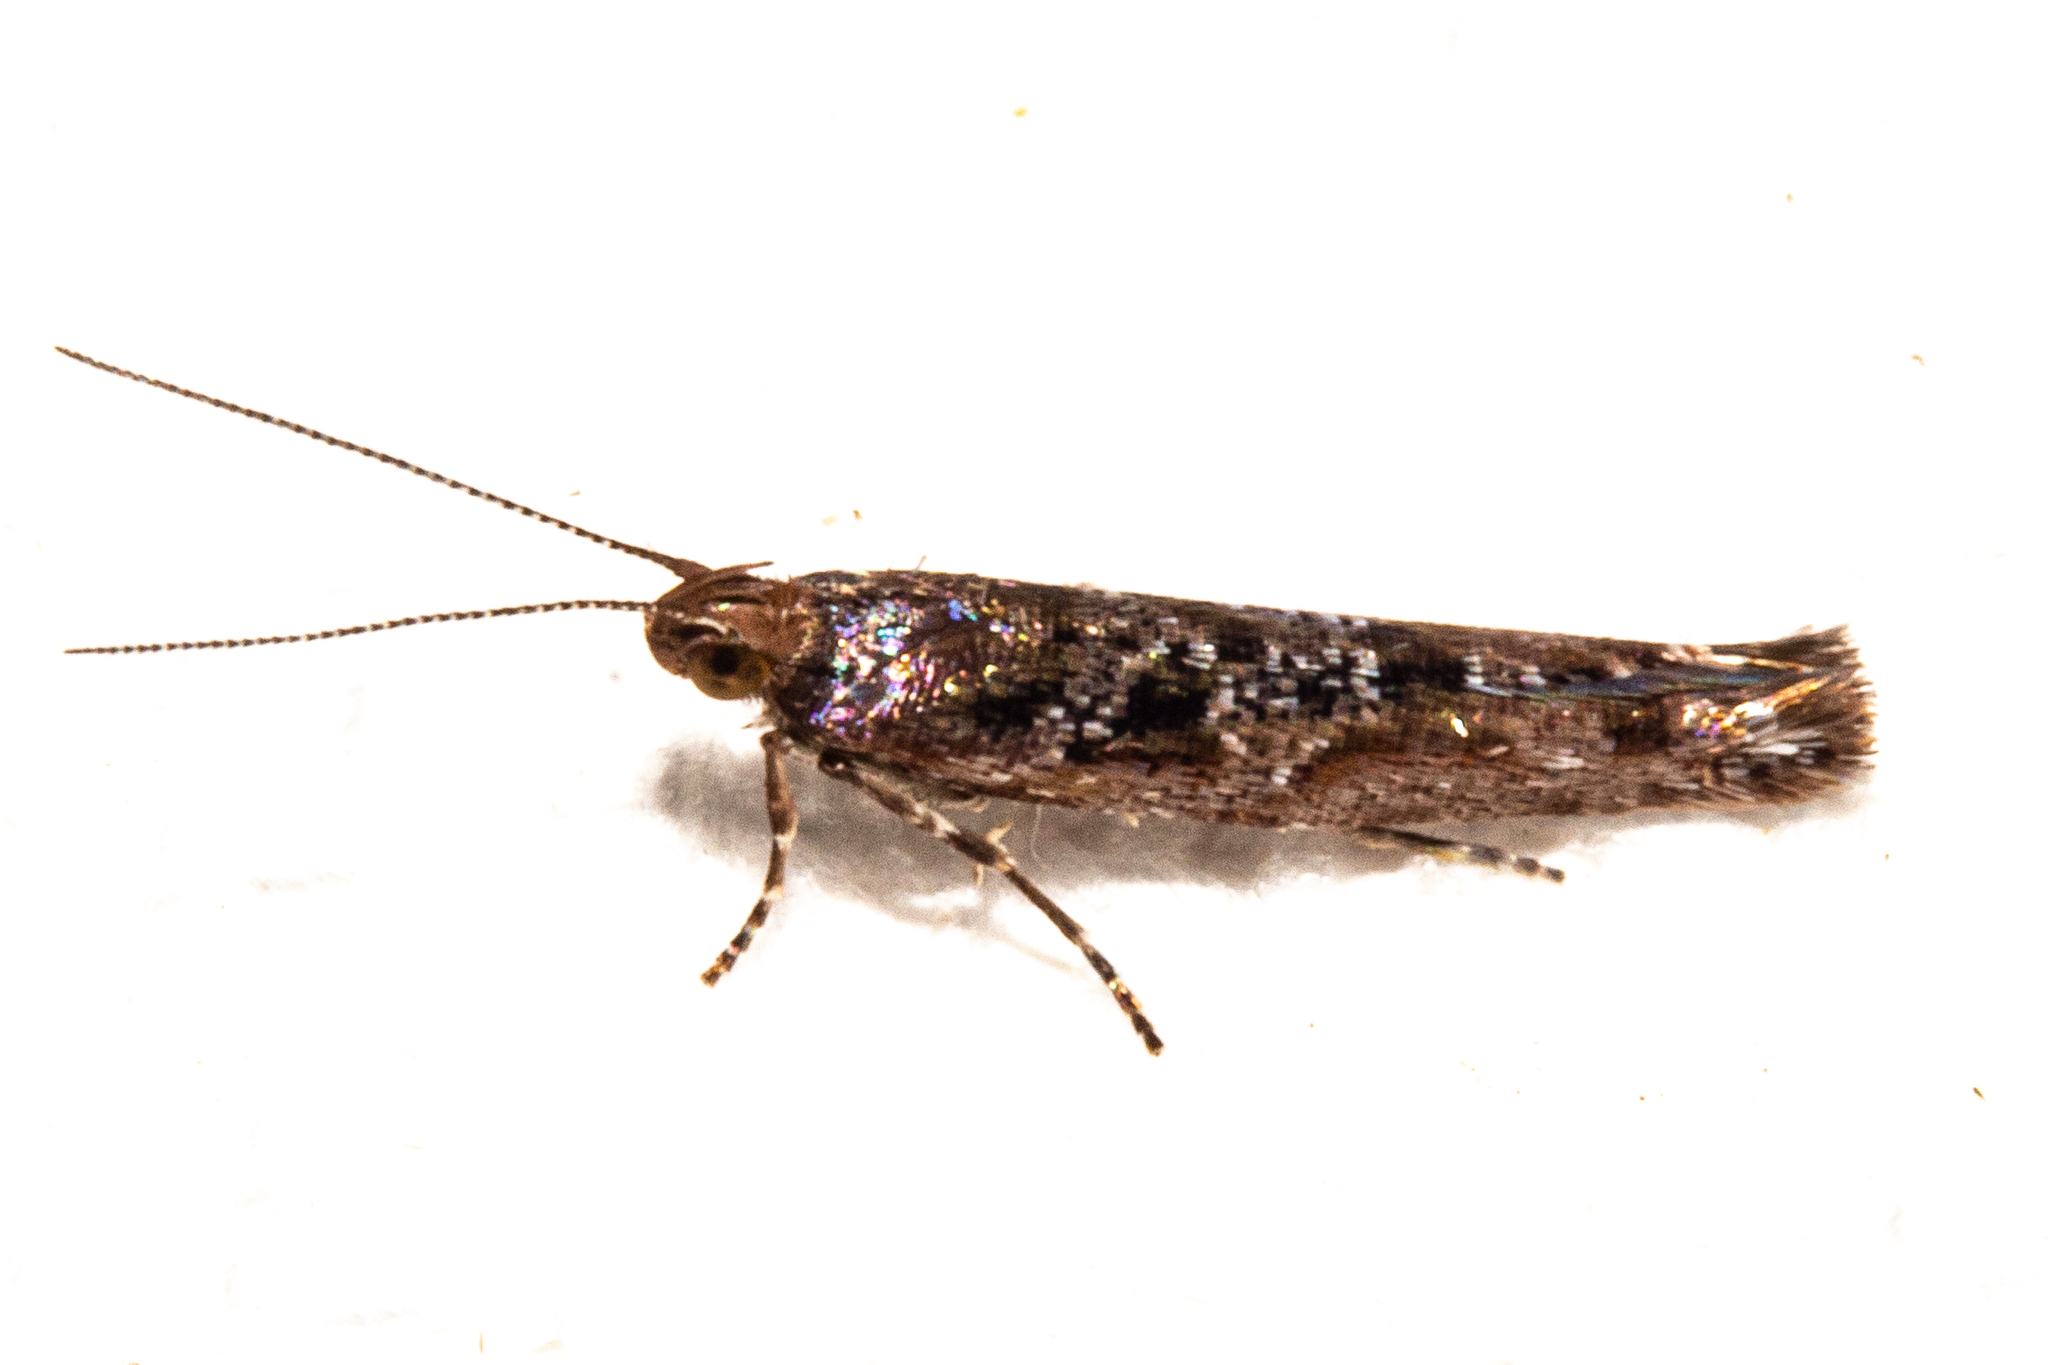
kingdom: Animalia
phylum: Arthropoda
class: Insecta
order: Lepidoptera
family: Glyphipterigidae
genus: Chrysorthenches
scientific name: Chrysorthenches porphyritis
